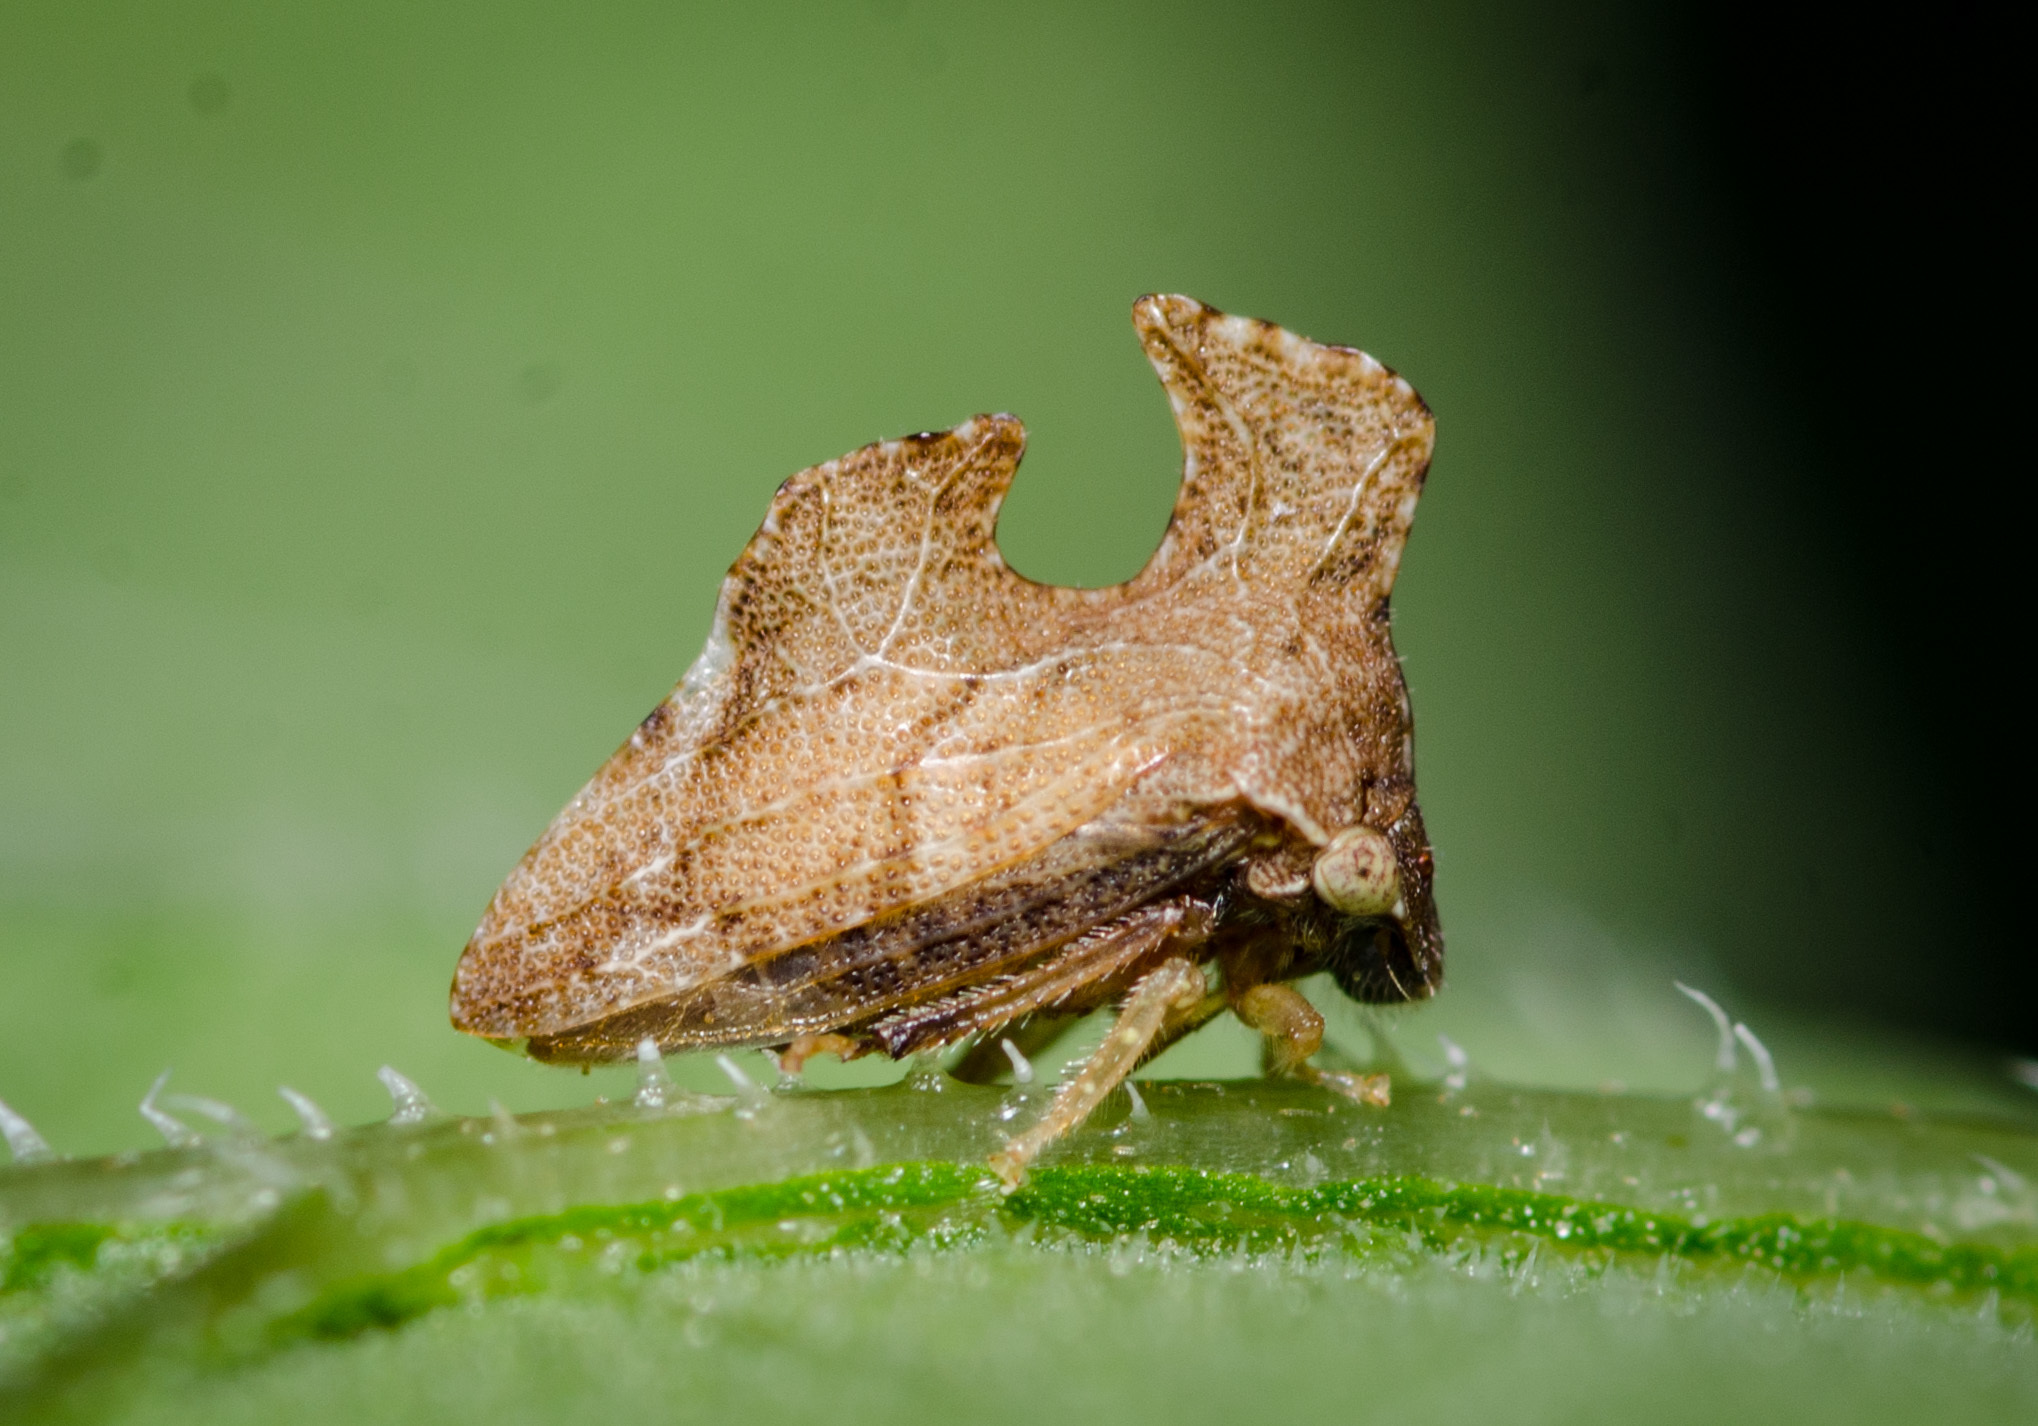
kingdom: Animalia
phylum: Arthropoda
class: Insecta
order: Hemiptera
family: Membracidae
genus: Entylia
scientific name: Entylia carinata
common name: Keeled treehopper
